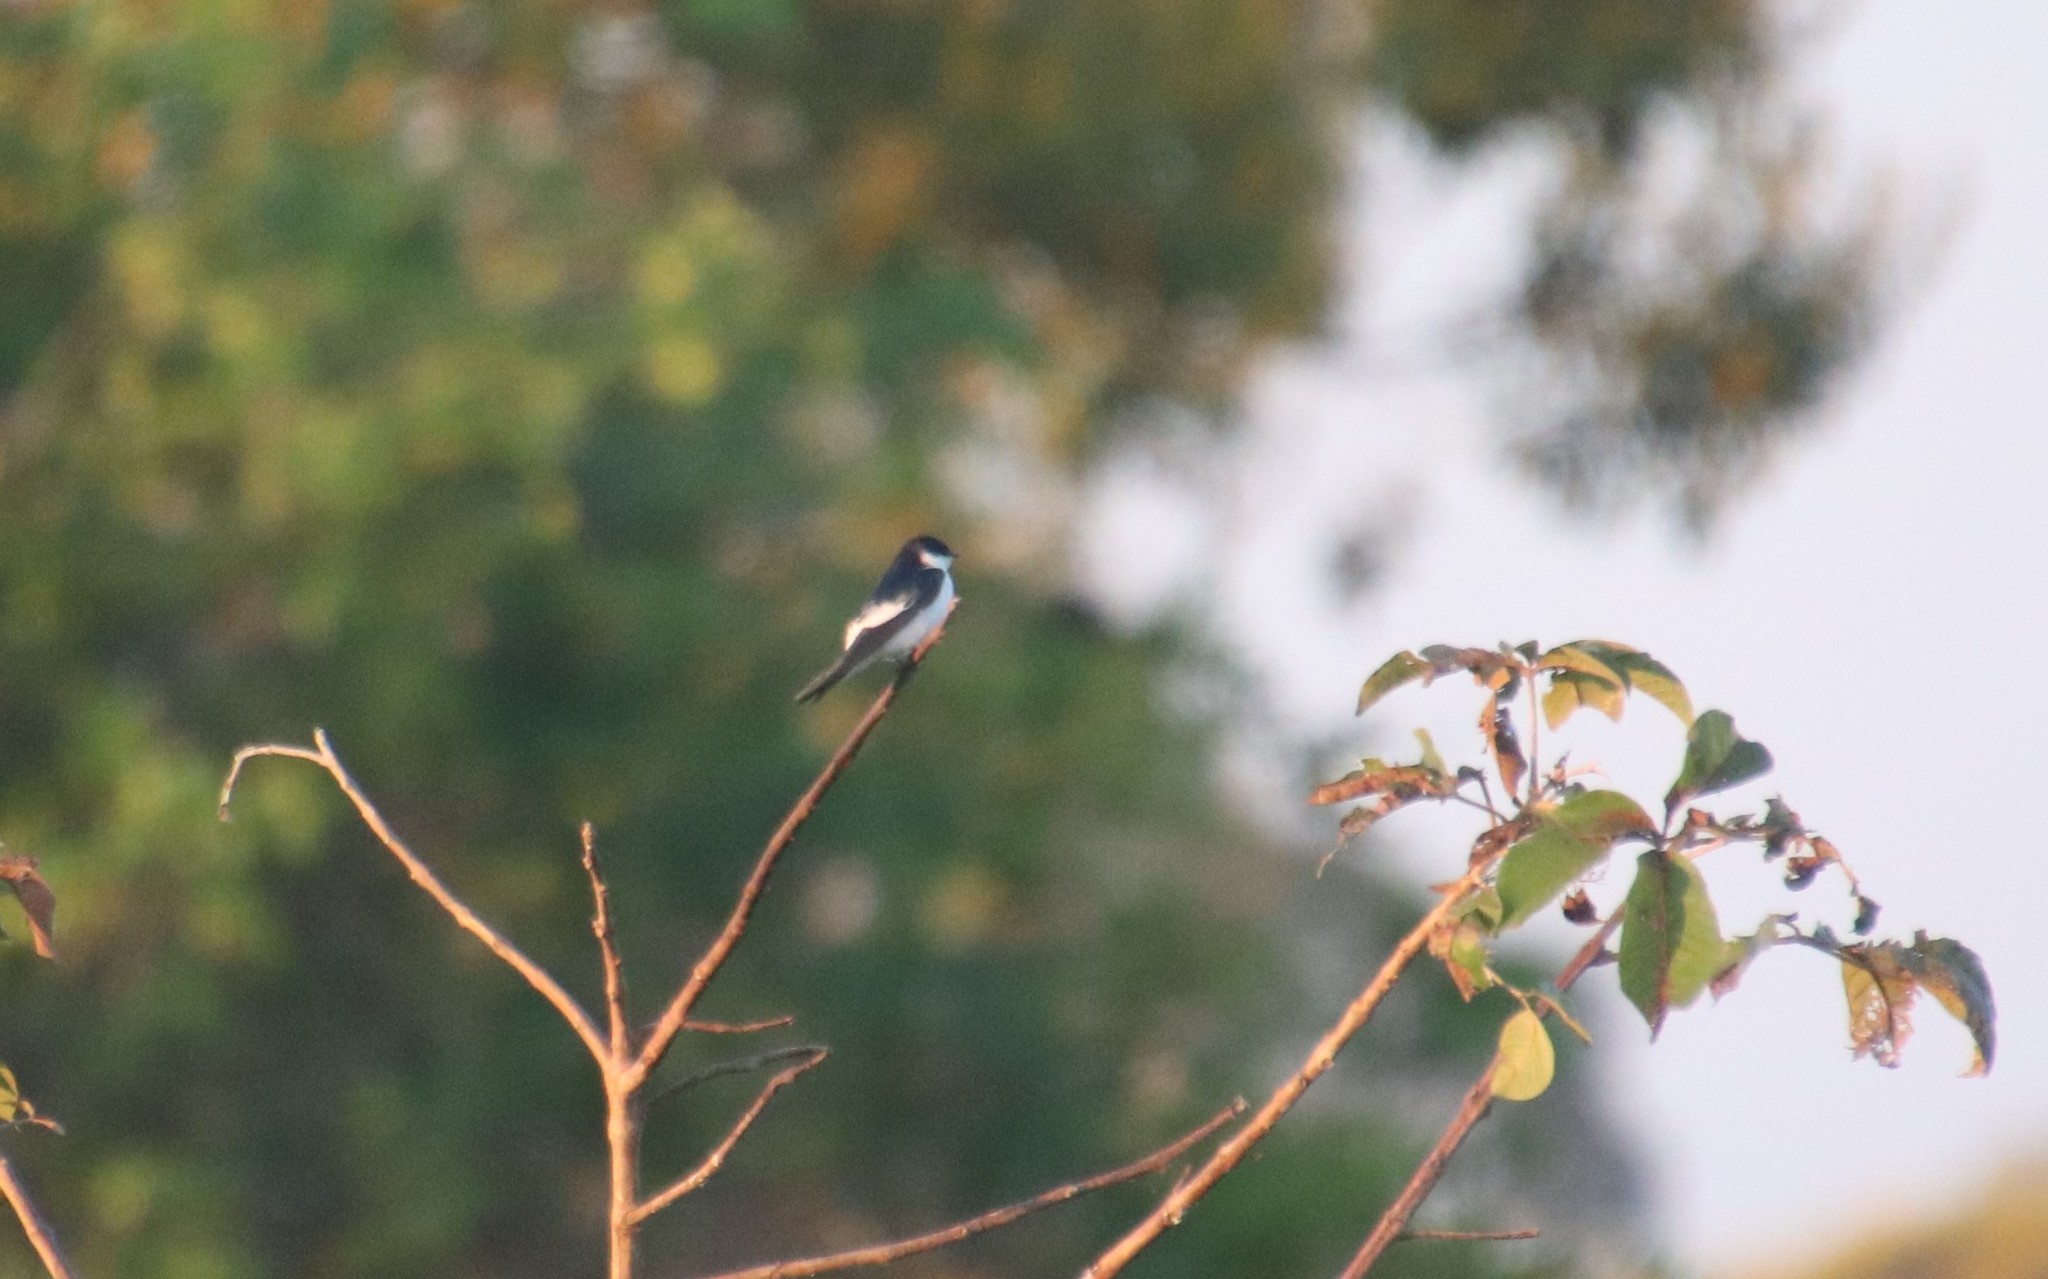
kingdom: Animalia
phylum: Chordata
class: Aves
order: Passeriformes
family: Hirundinidae
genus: Tachycineta
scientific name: Tachycineta albiventer
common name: White-winged swallow
